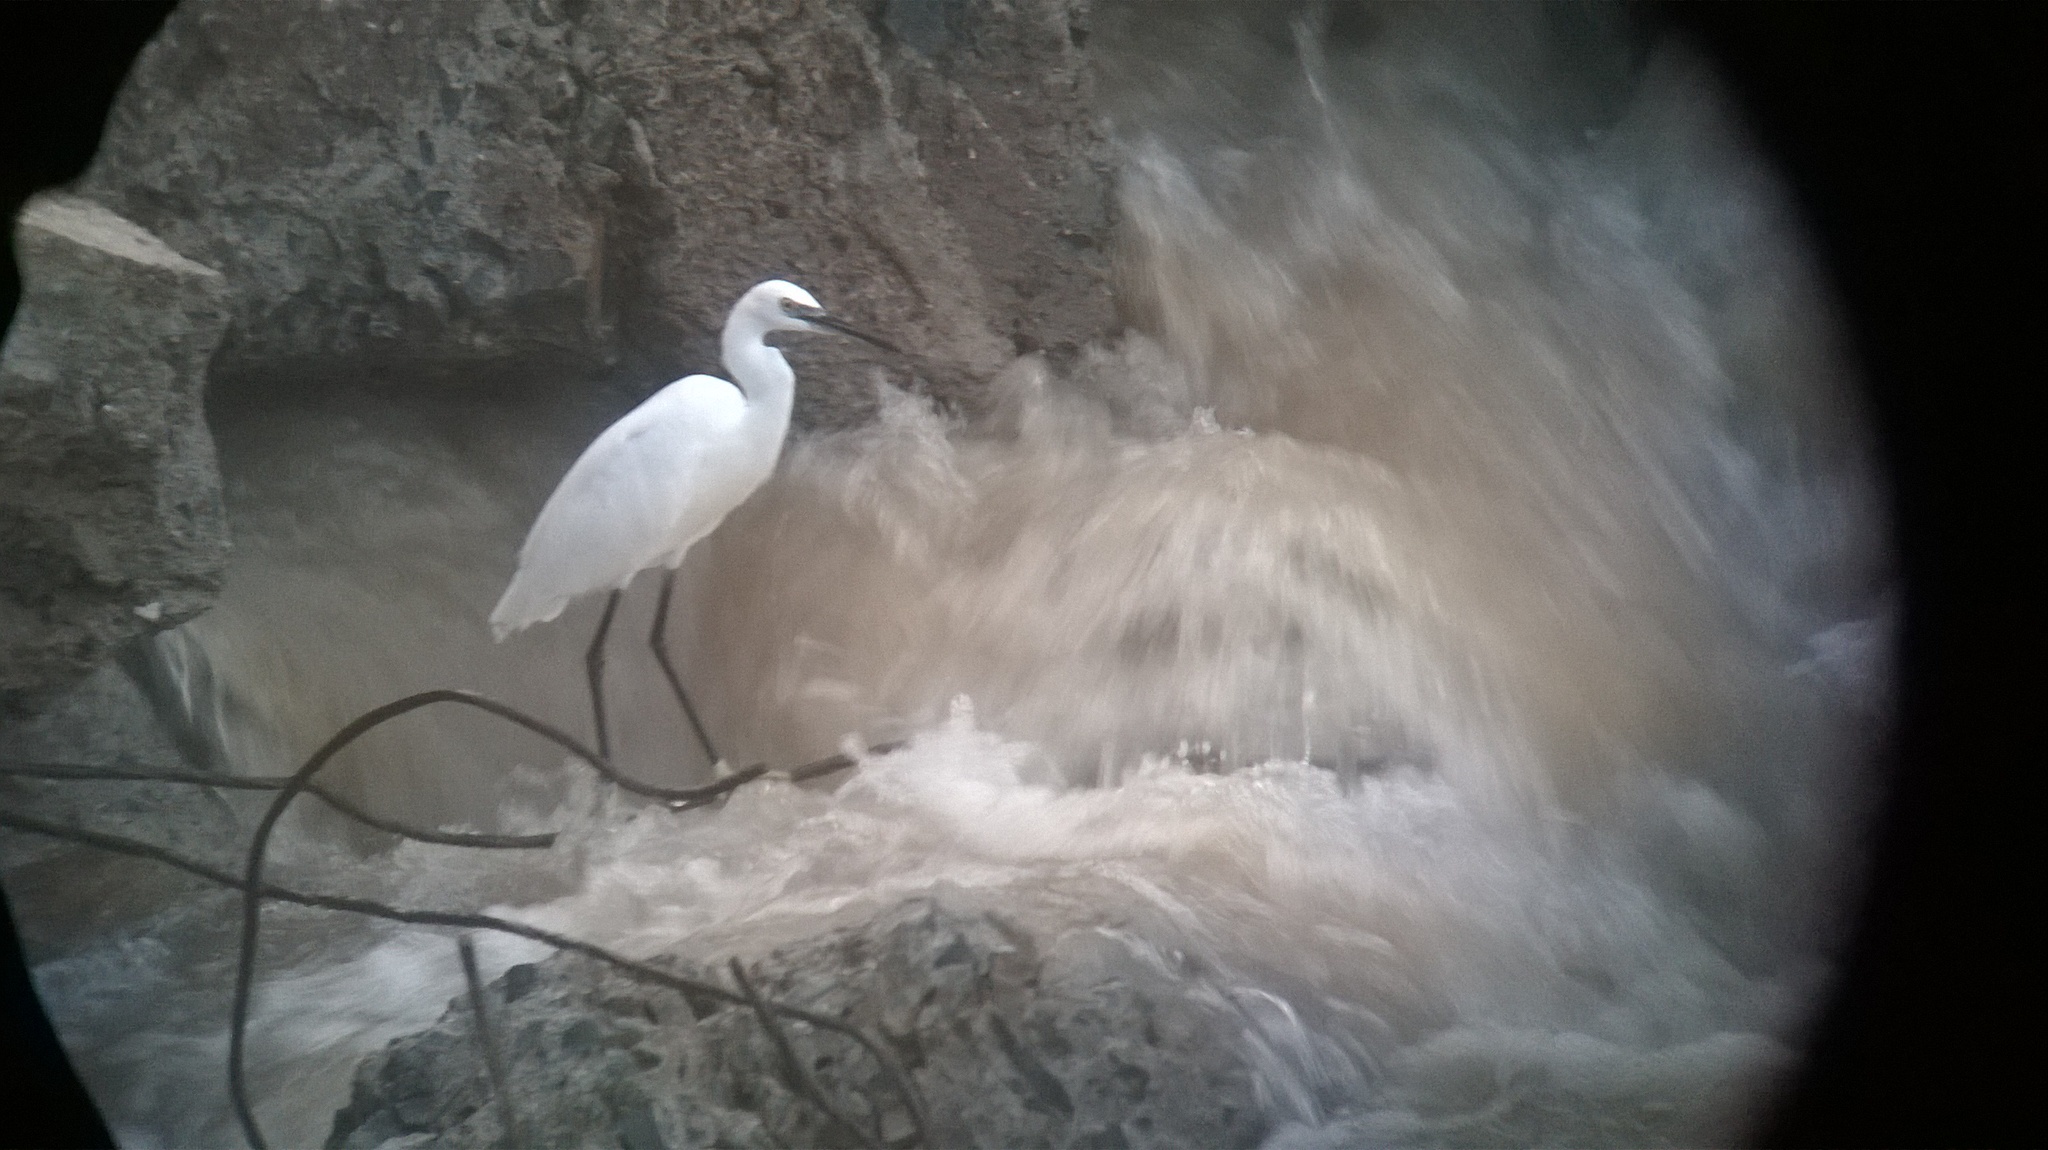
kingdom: Animalia
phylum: Chordata
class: Aves
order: Pelecaniformes
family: Ardeidae
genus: Egretta
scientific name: Egretta garzetta
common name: Little egret
